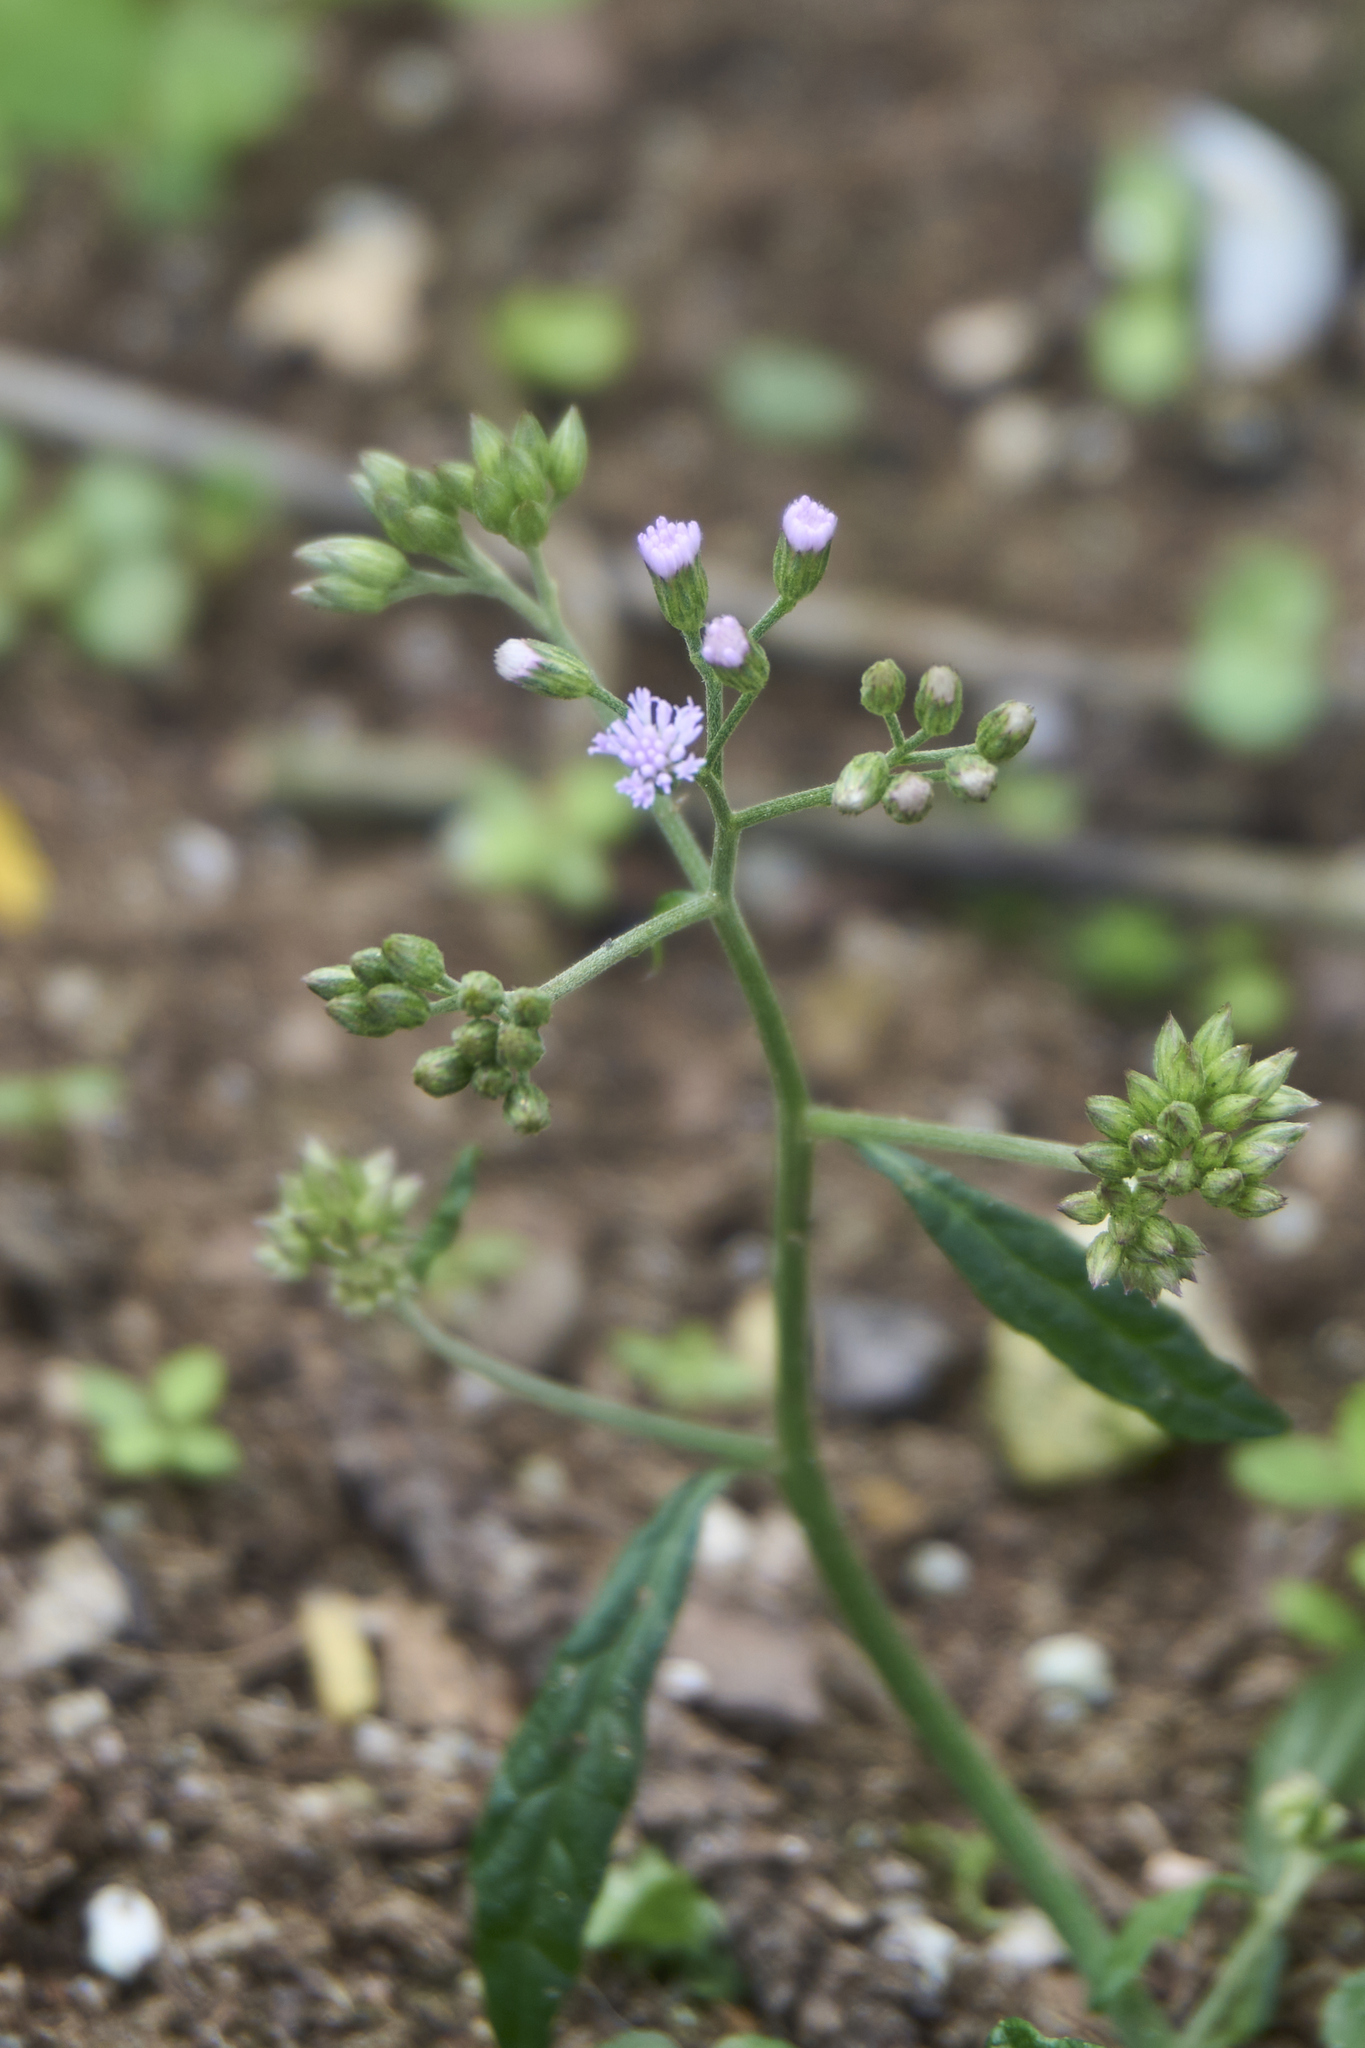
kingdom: Plantae
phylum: Tracheophyta
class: Magnoliopsida
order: Asterales
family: Asteraceae
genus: Cyanthillium
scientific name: Cyanthillium cinereum
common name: Little ironweed
